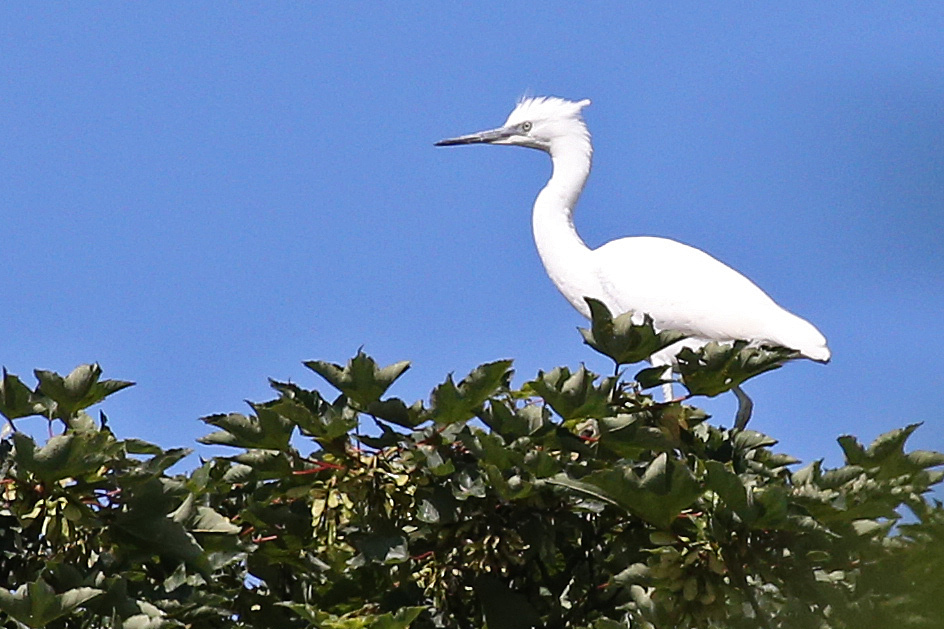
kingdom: Animalia
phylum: Chordata
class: Aves
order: Pelecaniformes
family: Ardeidae
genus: Egretta
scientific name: Egretta garzetta
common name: Little egret
